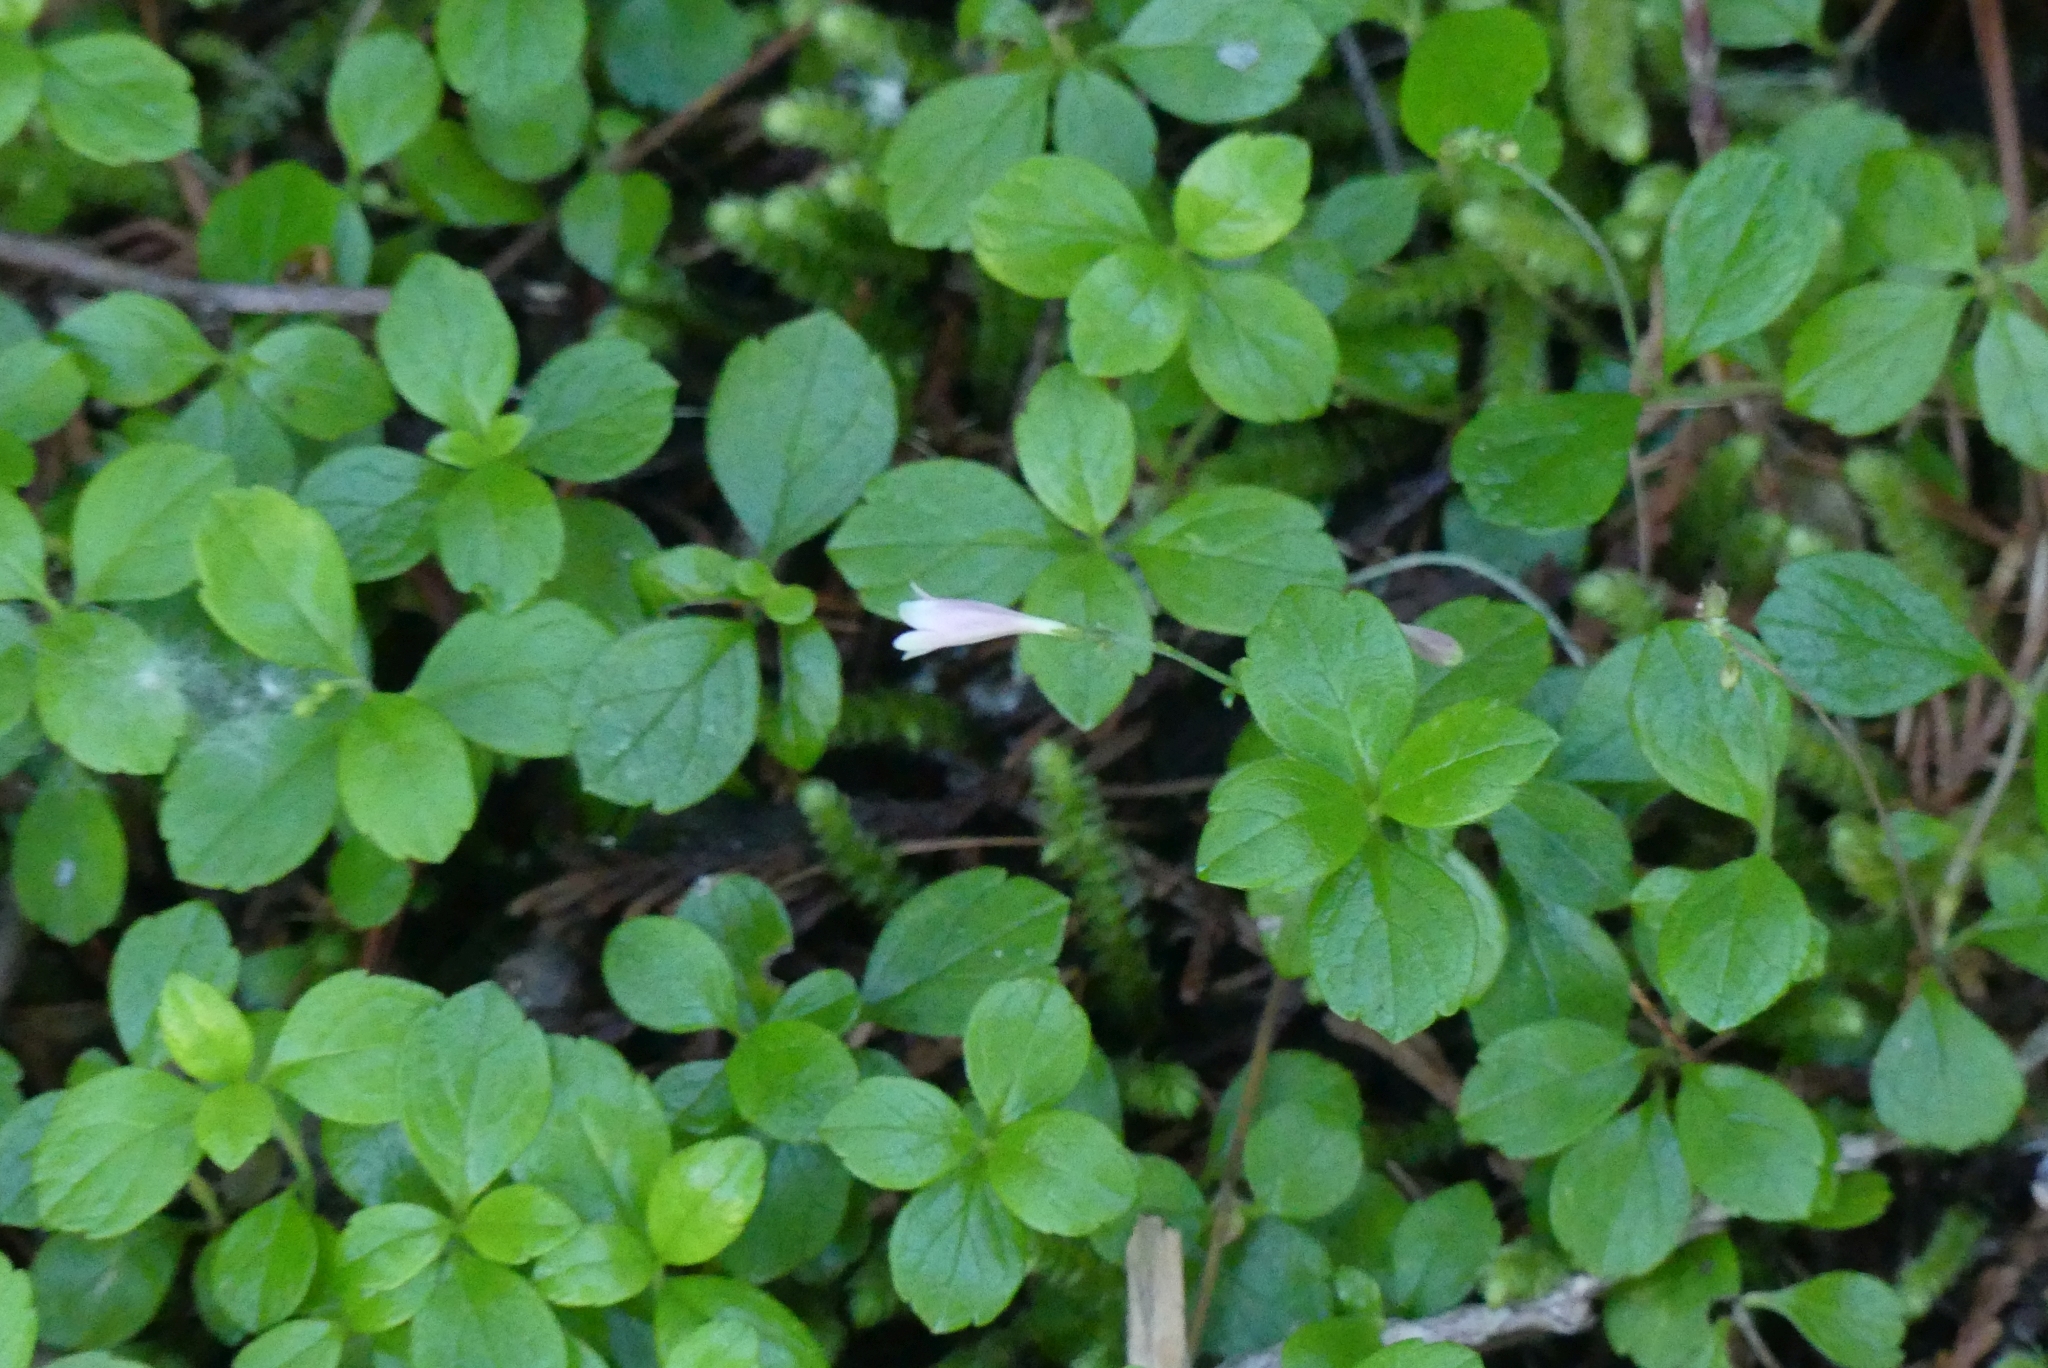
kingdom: Plantae
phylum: Tracheophyta
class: Magnoliopsida
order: Dipsacales
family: Caprifoliaceae
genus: Linnaea
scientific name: Linnaea borealis
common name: Twinflower
